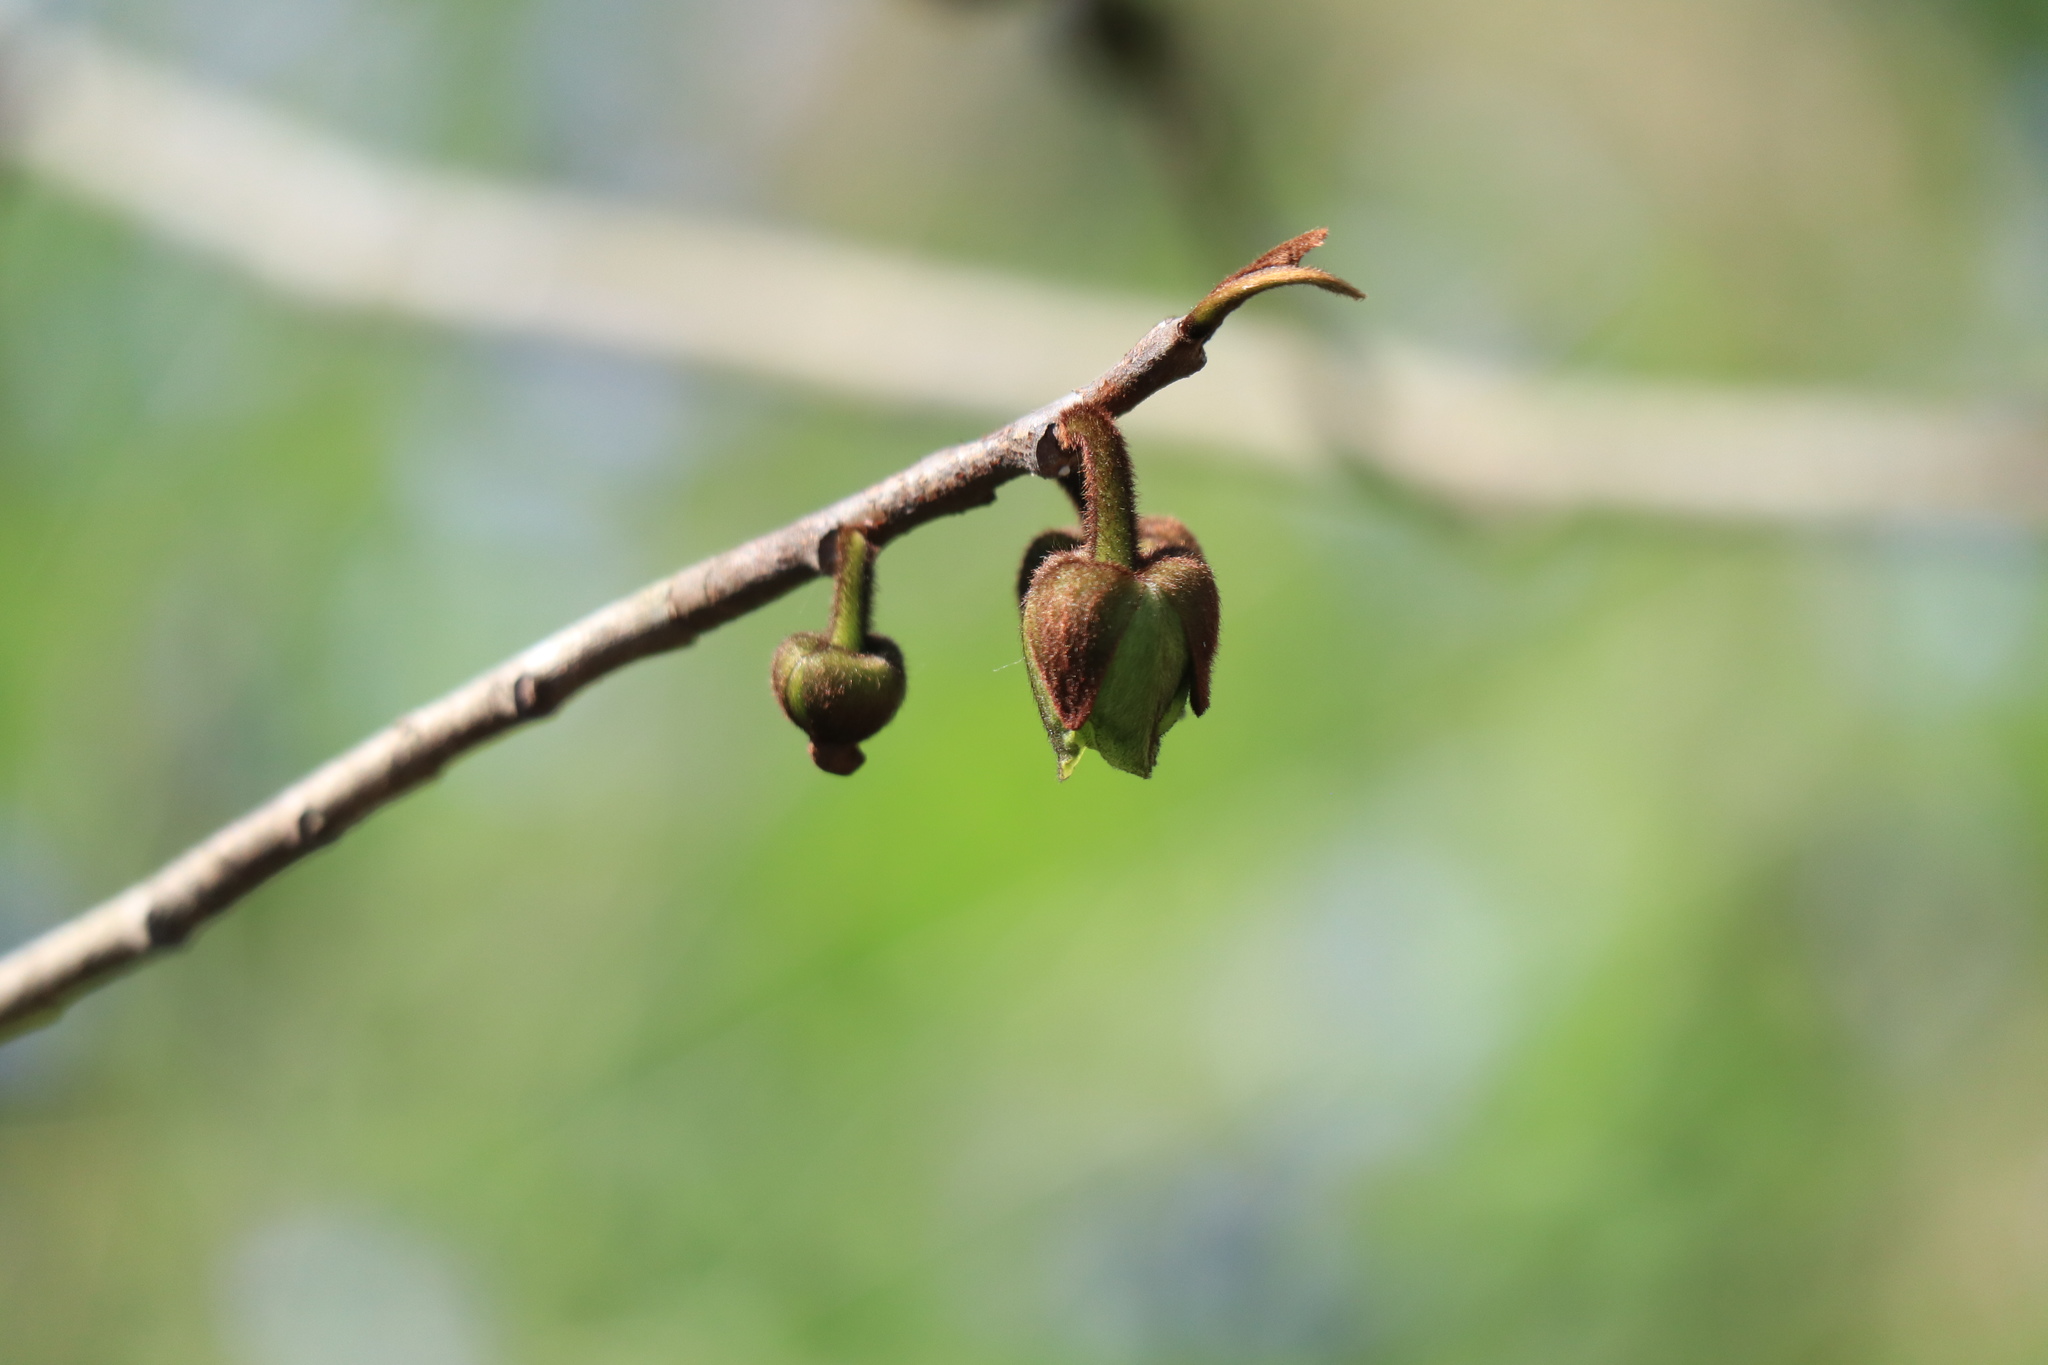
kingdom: Plantae
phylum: Tracheophyta
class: Magnoliopsida
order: Magnoliales
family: Annonaceae
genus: Asimina
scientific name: Asimina triloba
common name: Dog-banana
